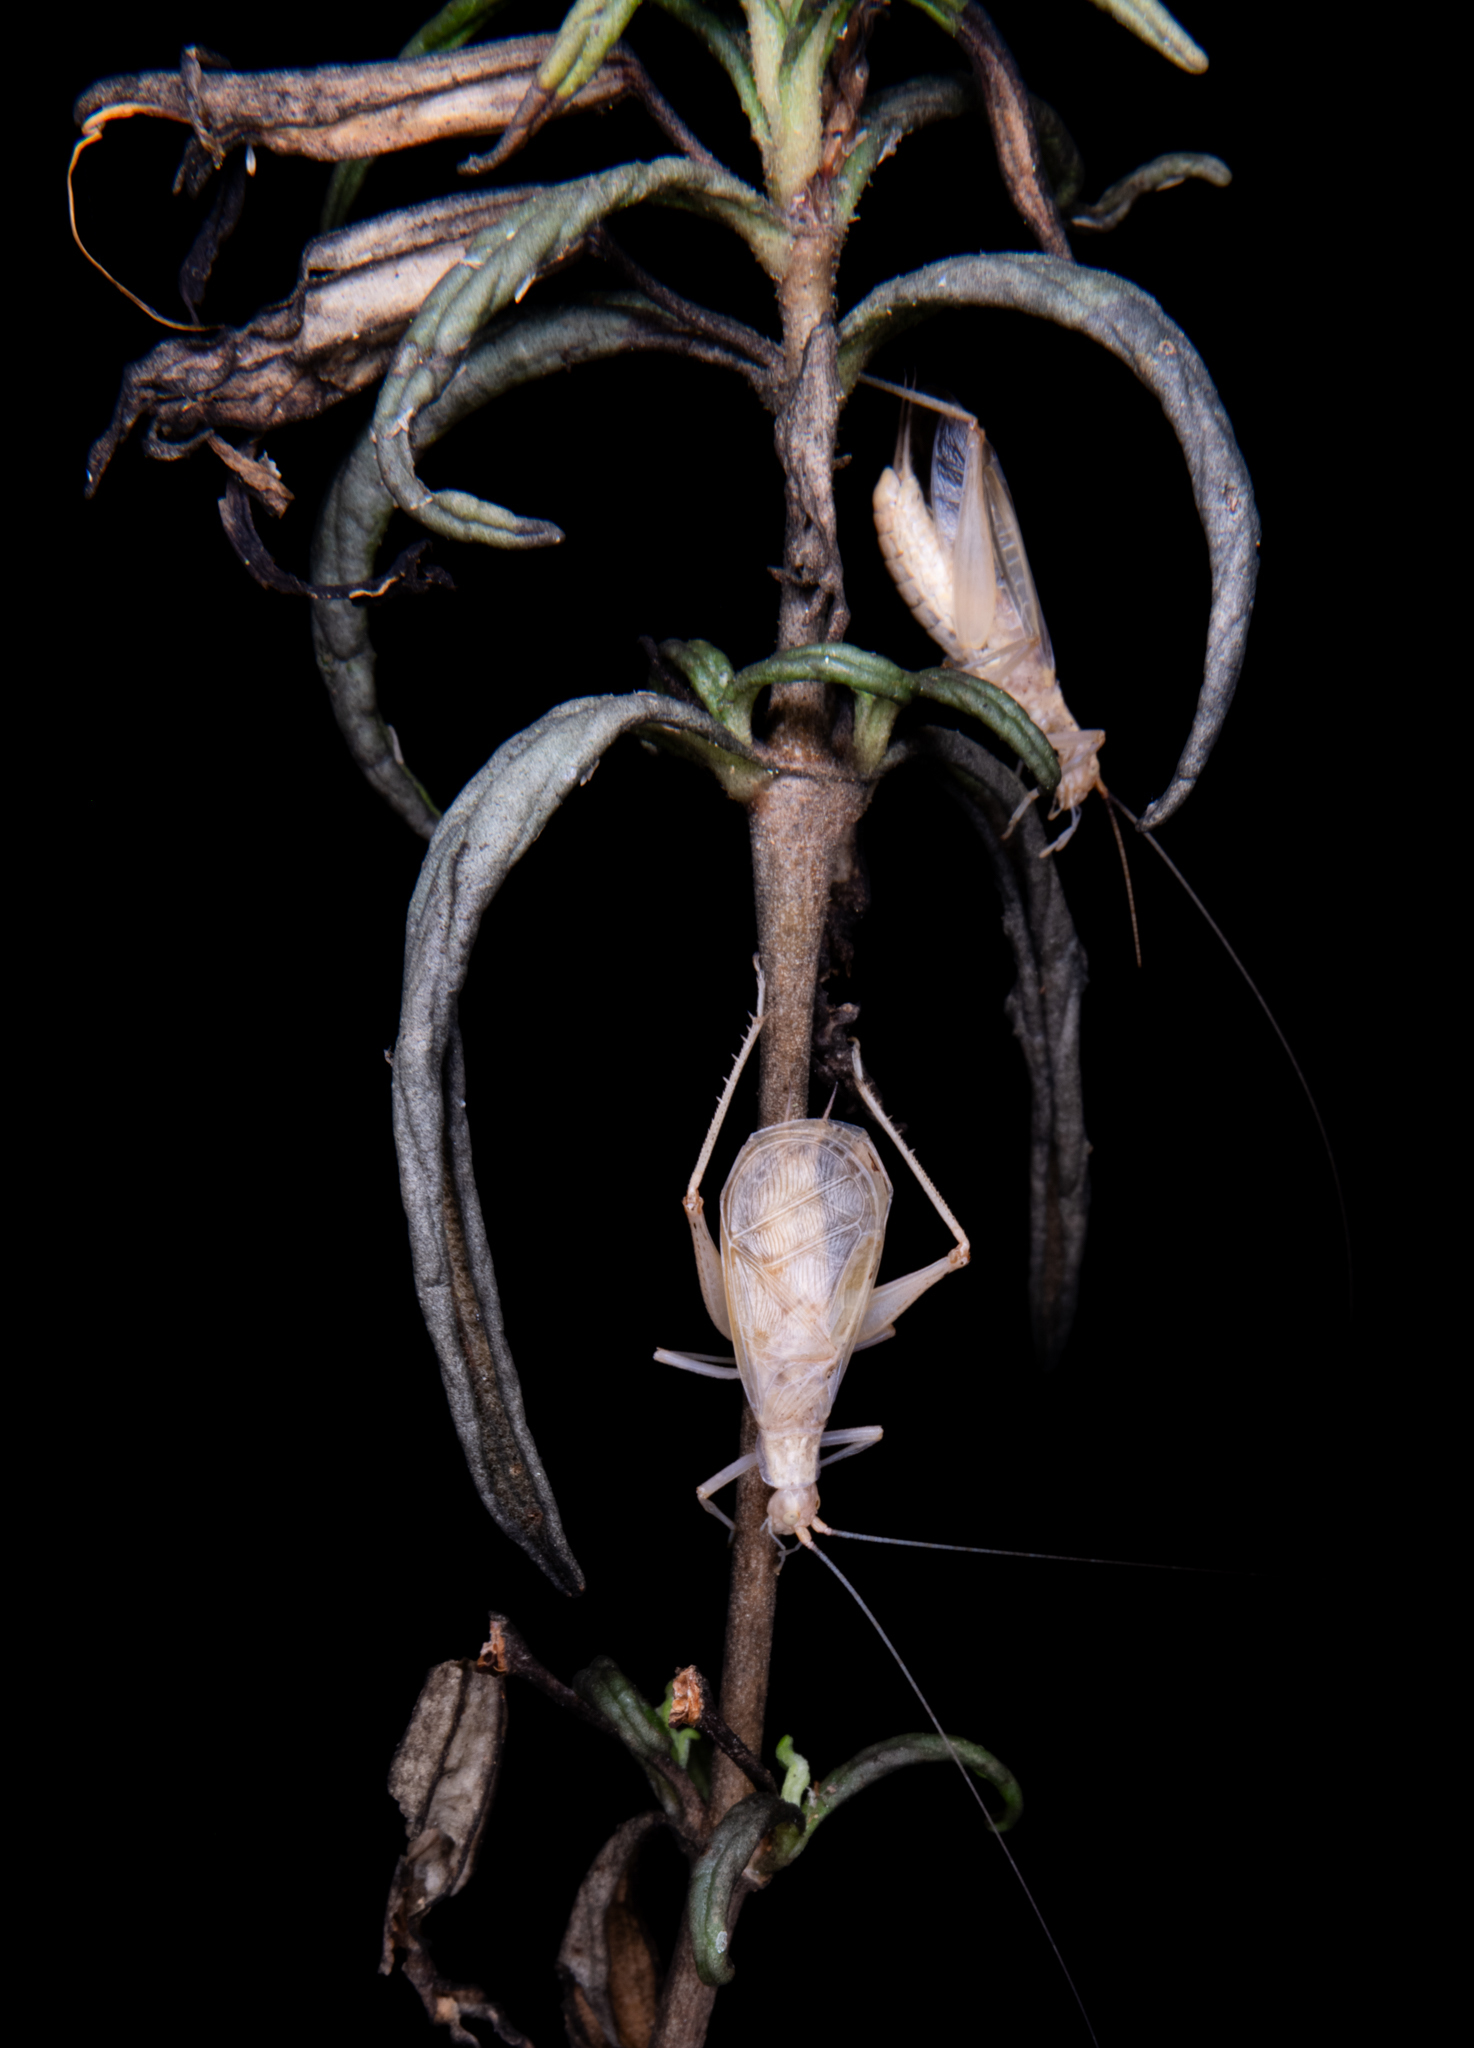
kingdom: Animalia
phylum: Arthropoda
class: Insecta
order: Orthoptera
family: Gryllidae
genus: Oecanthus
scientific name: Oecanthus californicus
